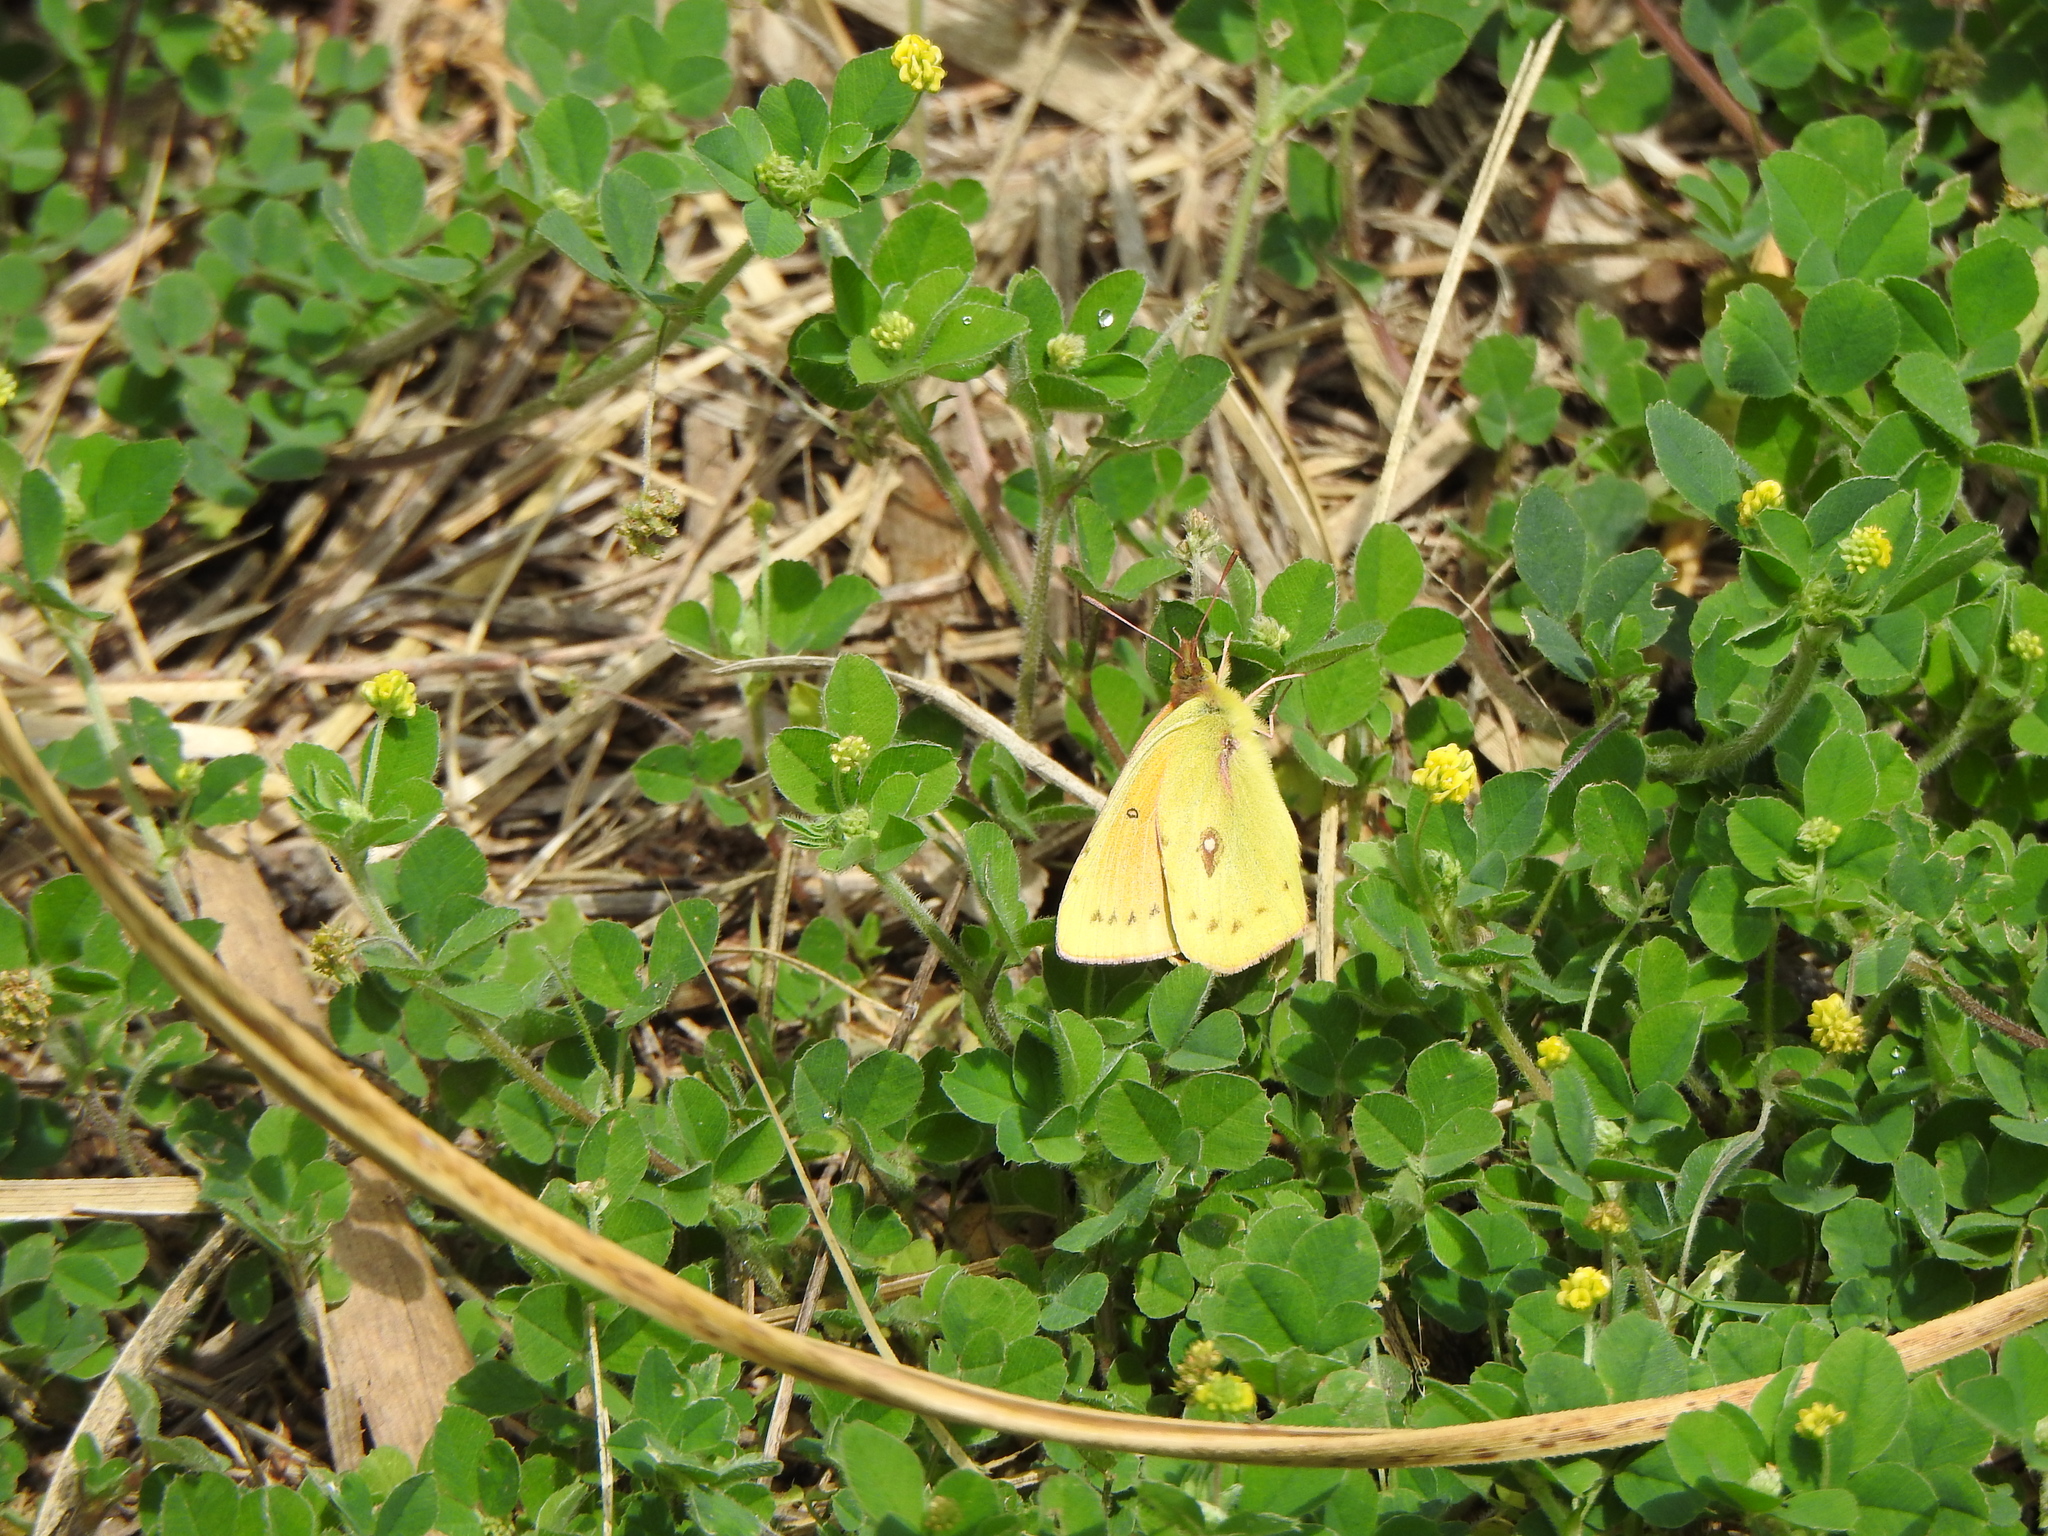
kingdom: Animalia
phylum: Arthropoda
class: Insecta
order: Lepidoptera
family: Pieridae
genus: Colias
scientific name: Colias lesbia
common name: Lesbia clouded yellow
